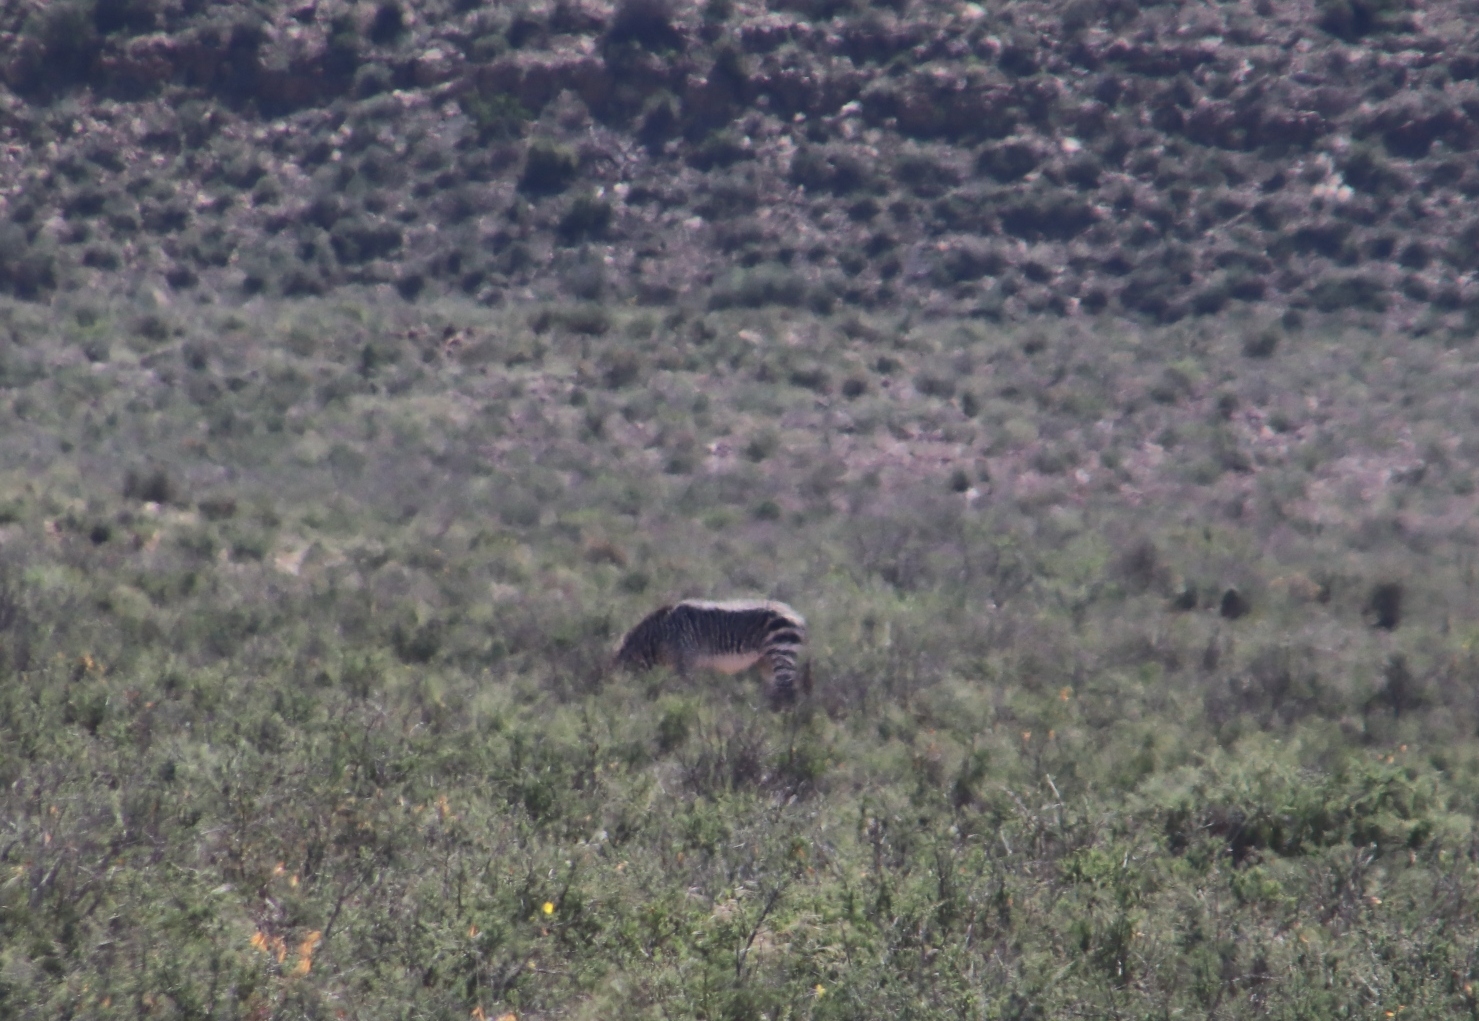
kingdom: Animalia
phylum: Chordata
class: Mammalia
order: Perissodactyla
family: Equidae
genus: Equus
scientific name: Equus zebra
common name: Mountain zebra
